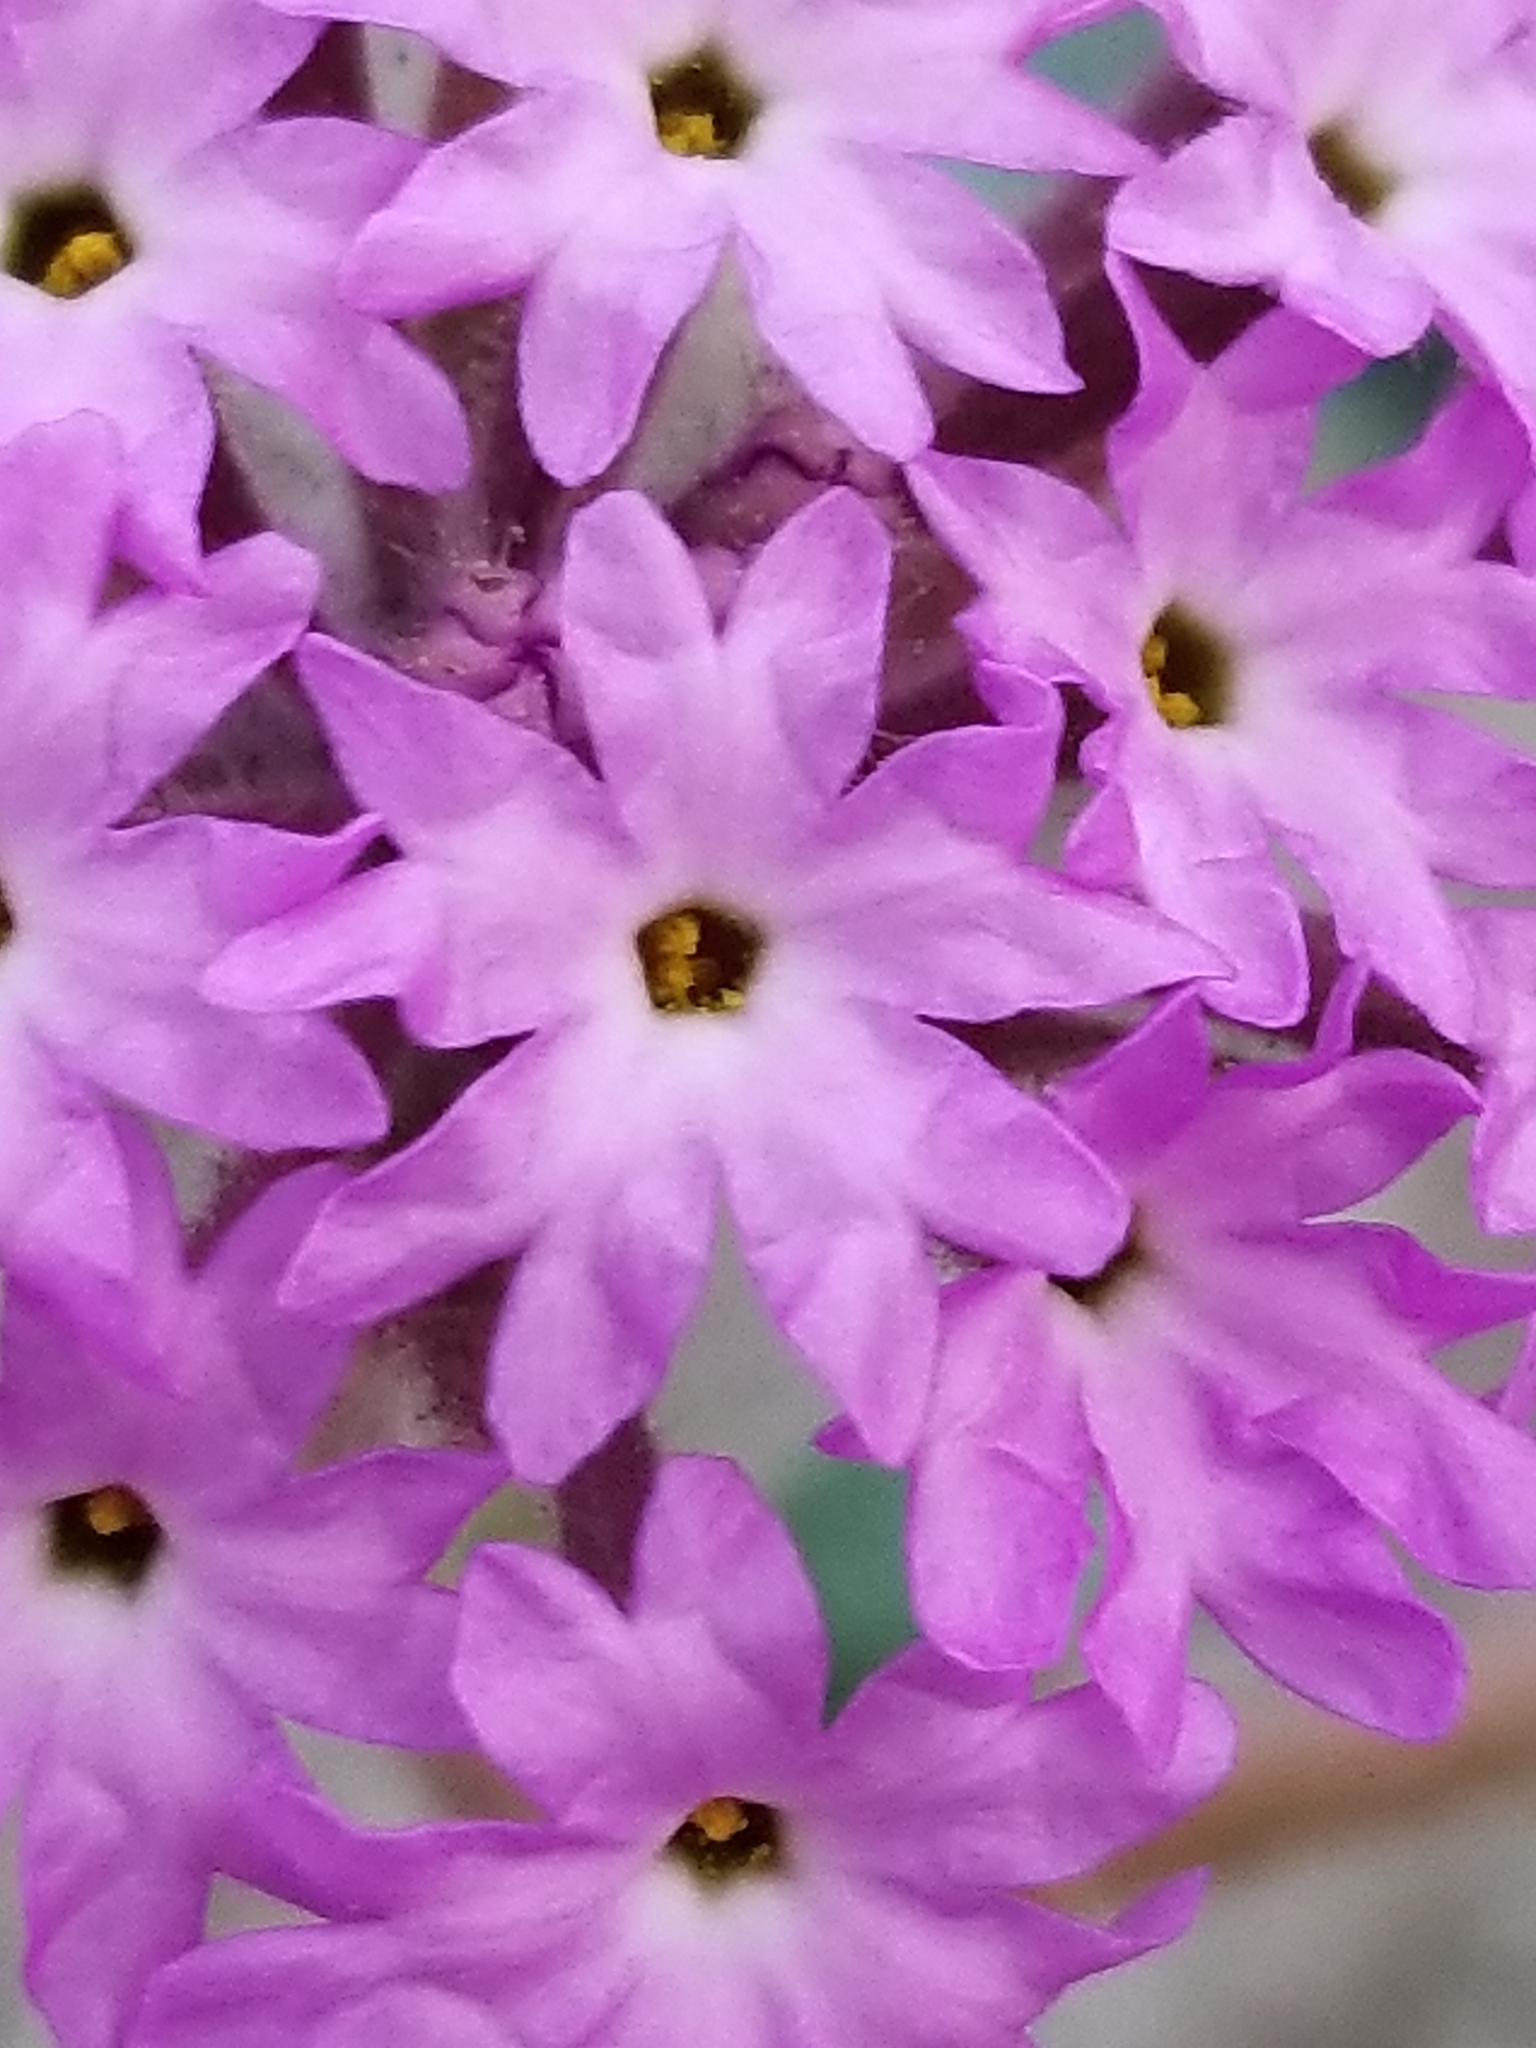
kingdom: Plantae
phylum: Tracheophyta
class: Magnoliopsida
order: Caryophyllales
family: Nyctaginaceae
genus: Abronia
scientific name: Abronia villosa
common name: Desert sand-verbena
